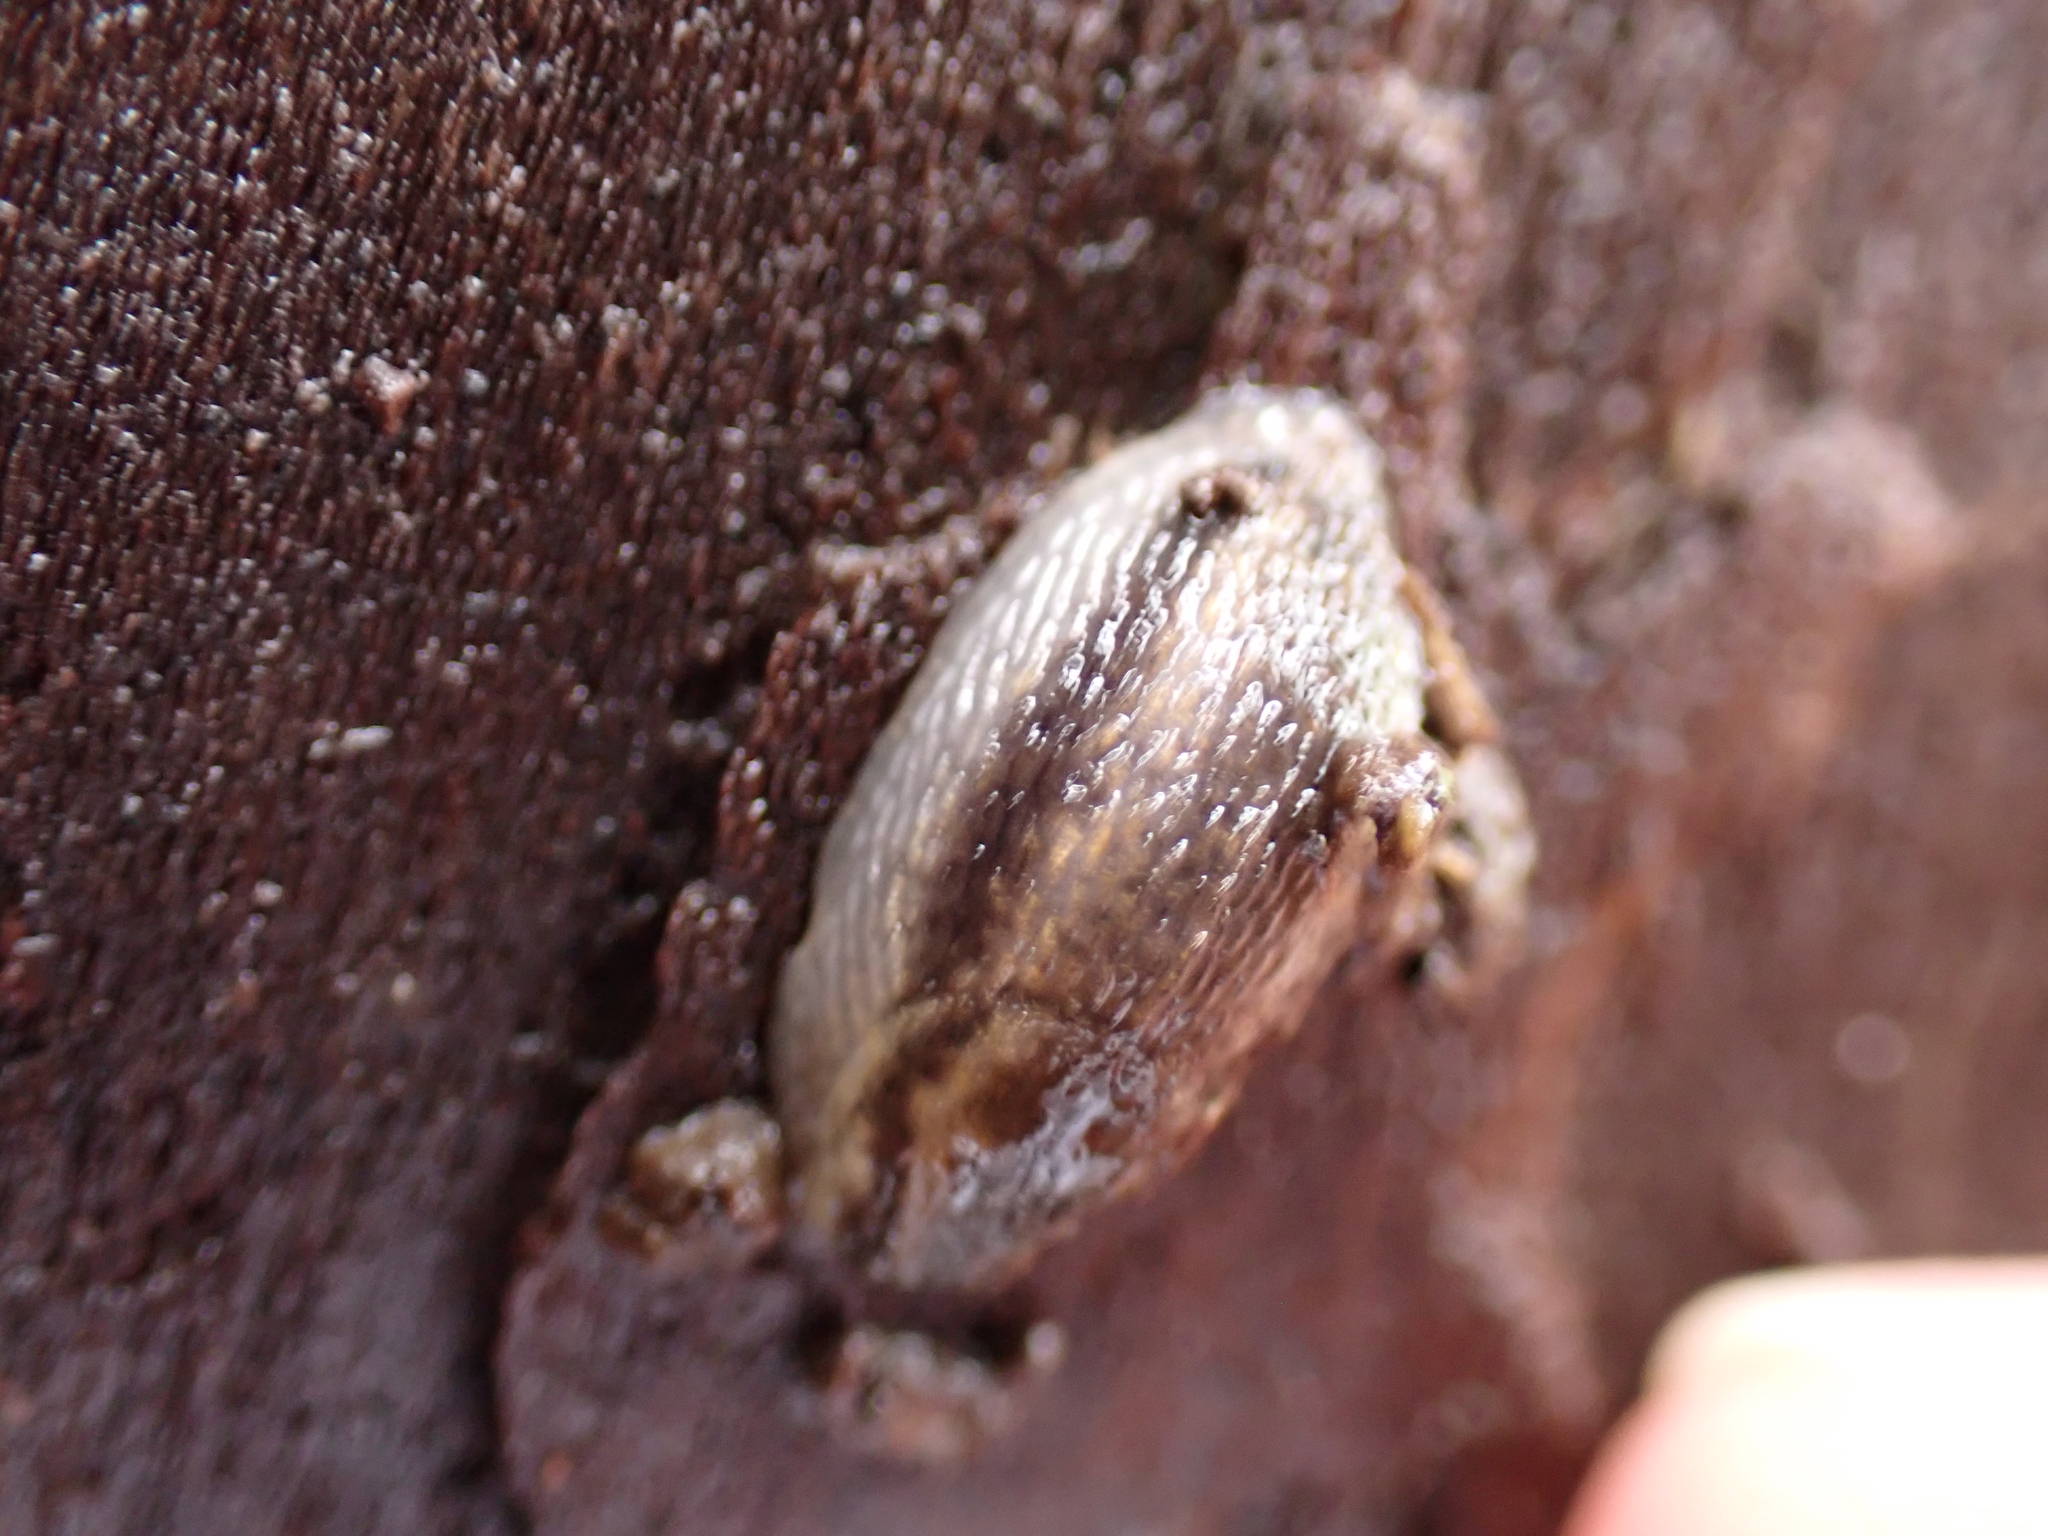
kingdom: Animalia
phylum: Mollusca
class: Gastropoda
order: Stylommatophora
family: Arionidae
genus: Arion
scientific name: Arion fasciatus
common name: Orange-banded arion
